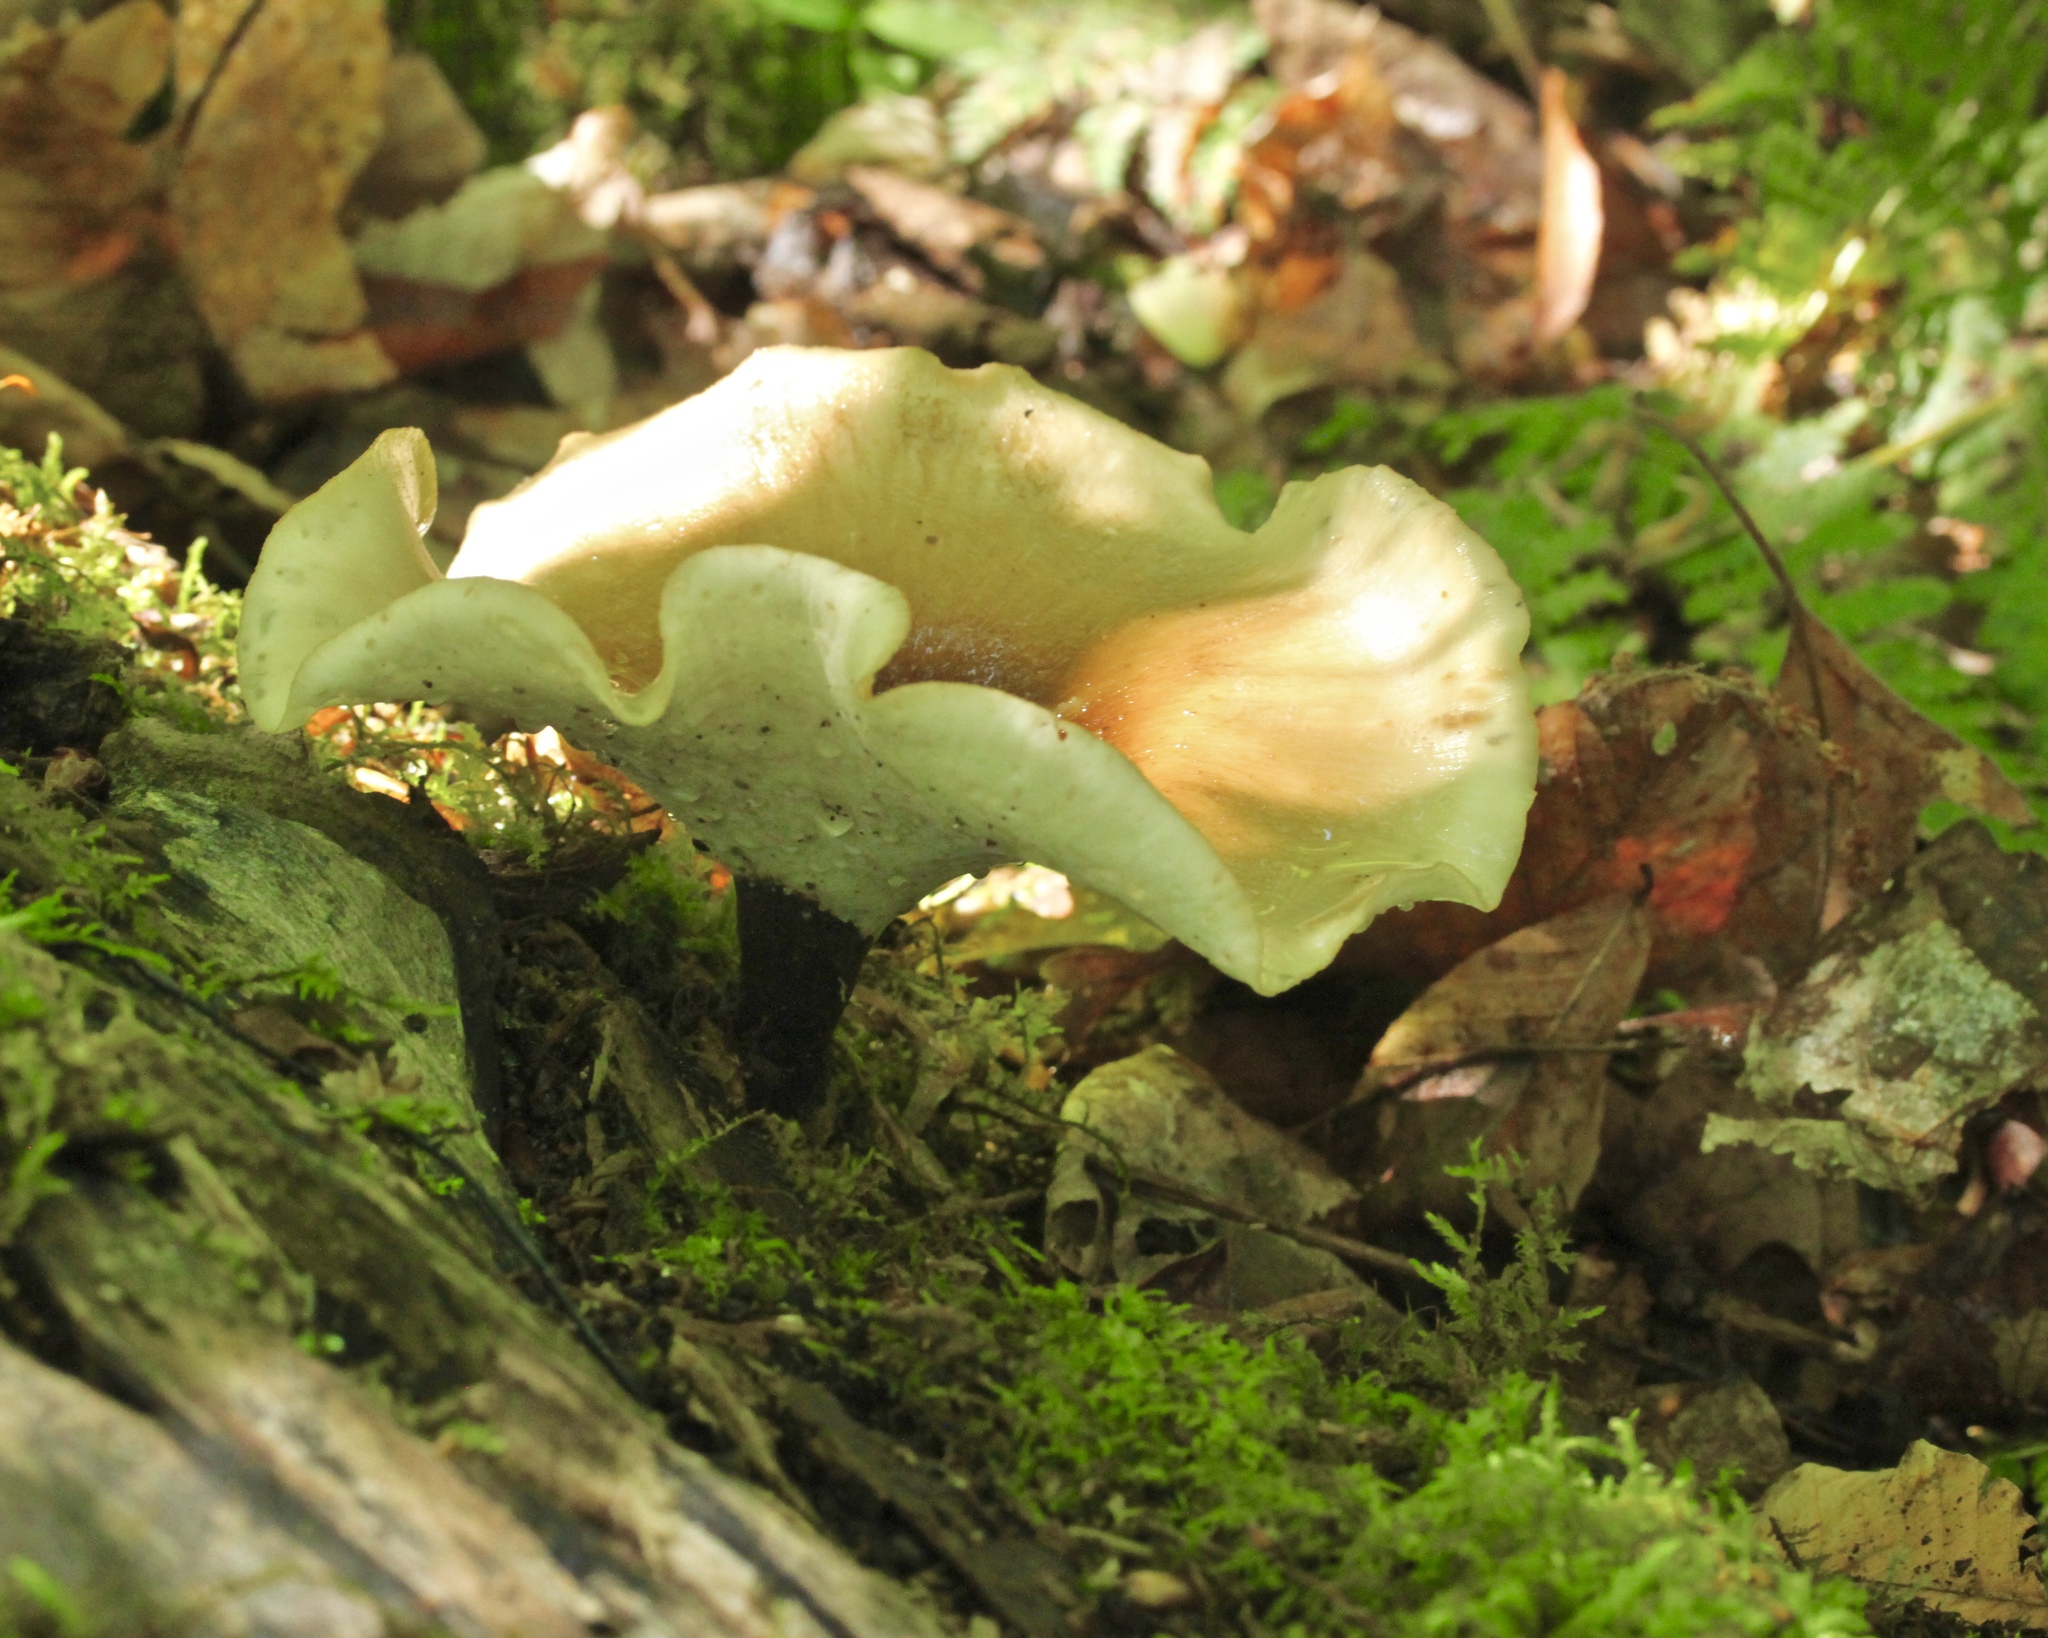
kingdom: Fungi
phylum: Basidiomycota
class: Agaricomycetes
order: Polyporales
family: Polyporaceae
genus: Picipes
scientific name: Picipes badius
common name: Bay polypore
